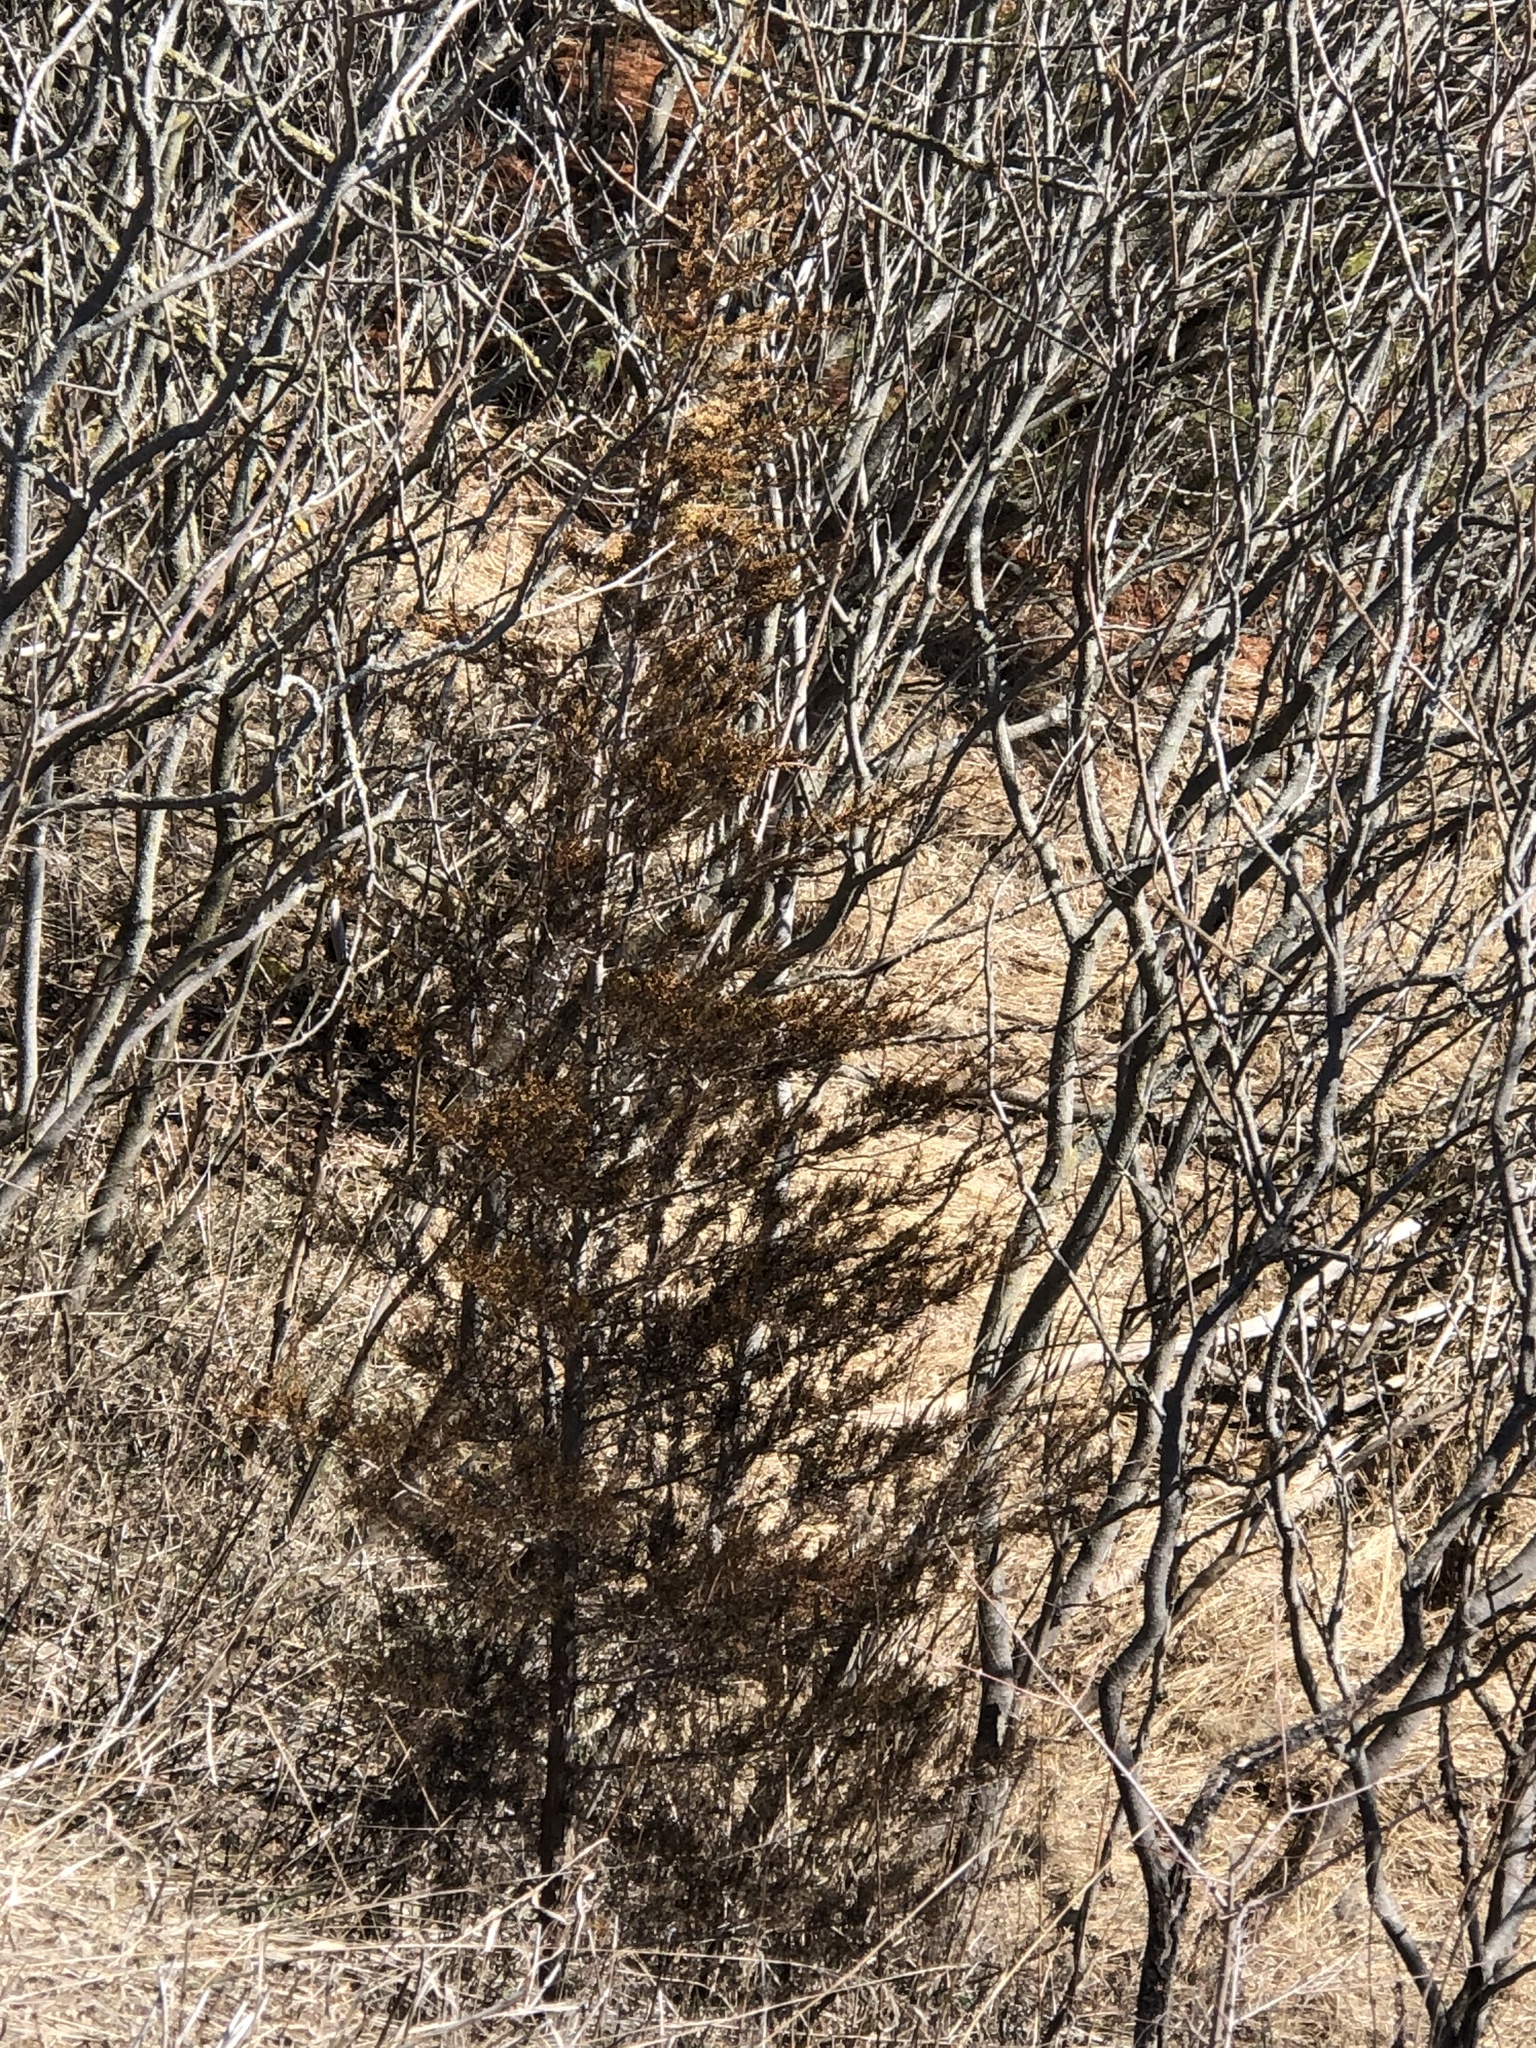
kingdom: Plantae
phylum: Tracheophyta
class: Pinopsida
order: Pinales
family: Cupressaceae
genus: Juniperus
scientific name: Juniperus virginiana
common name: Red juniper
